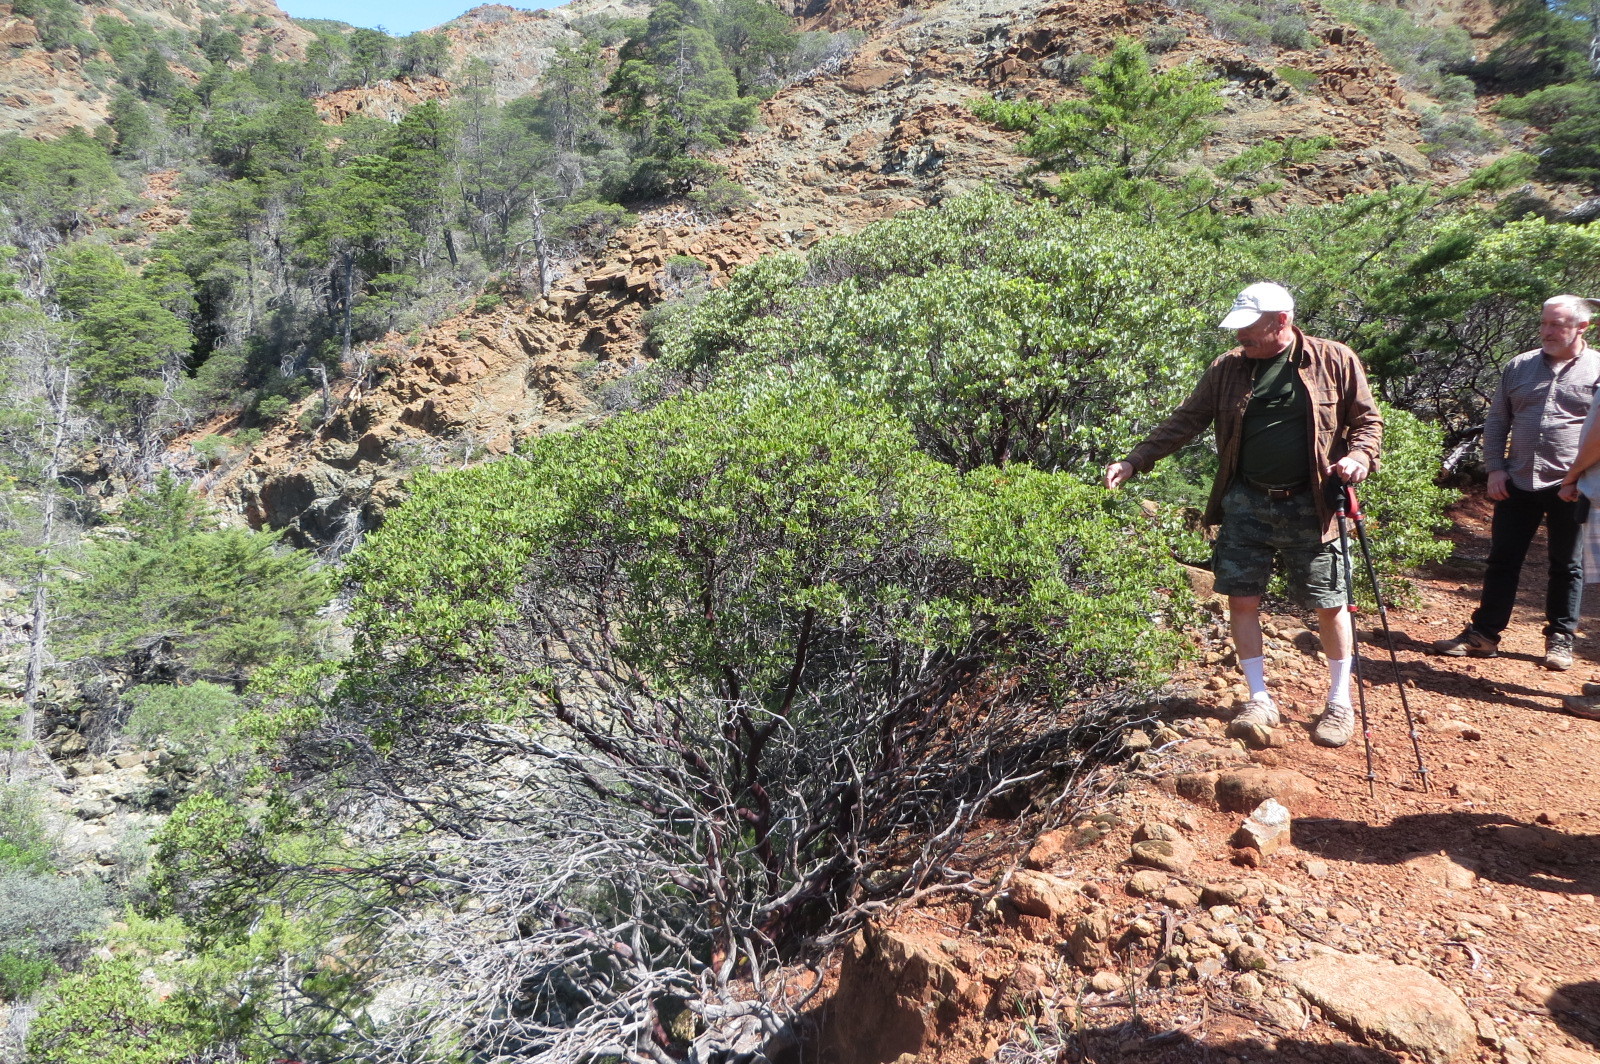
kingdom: Plantae
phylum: Tracheophyta
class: Magnoliopsida
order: Ericales
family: Ericaceae
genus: Arctostaphylos
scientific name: Arctostaphylos bakeri
